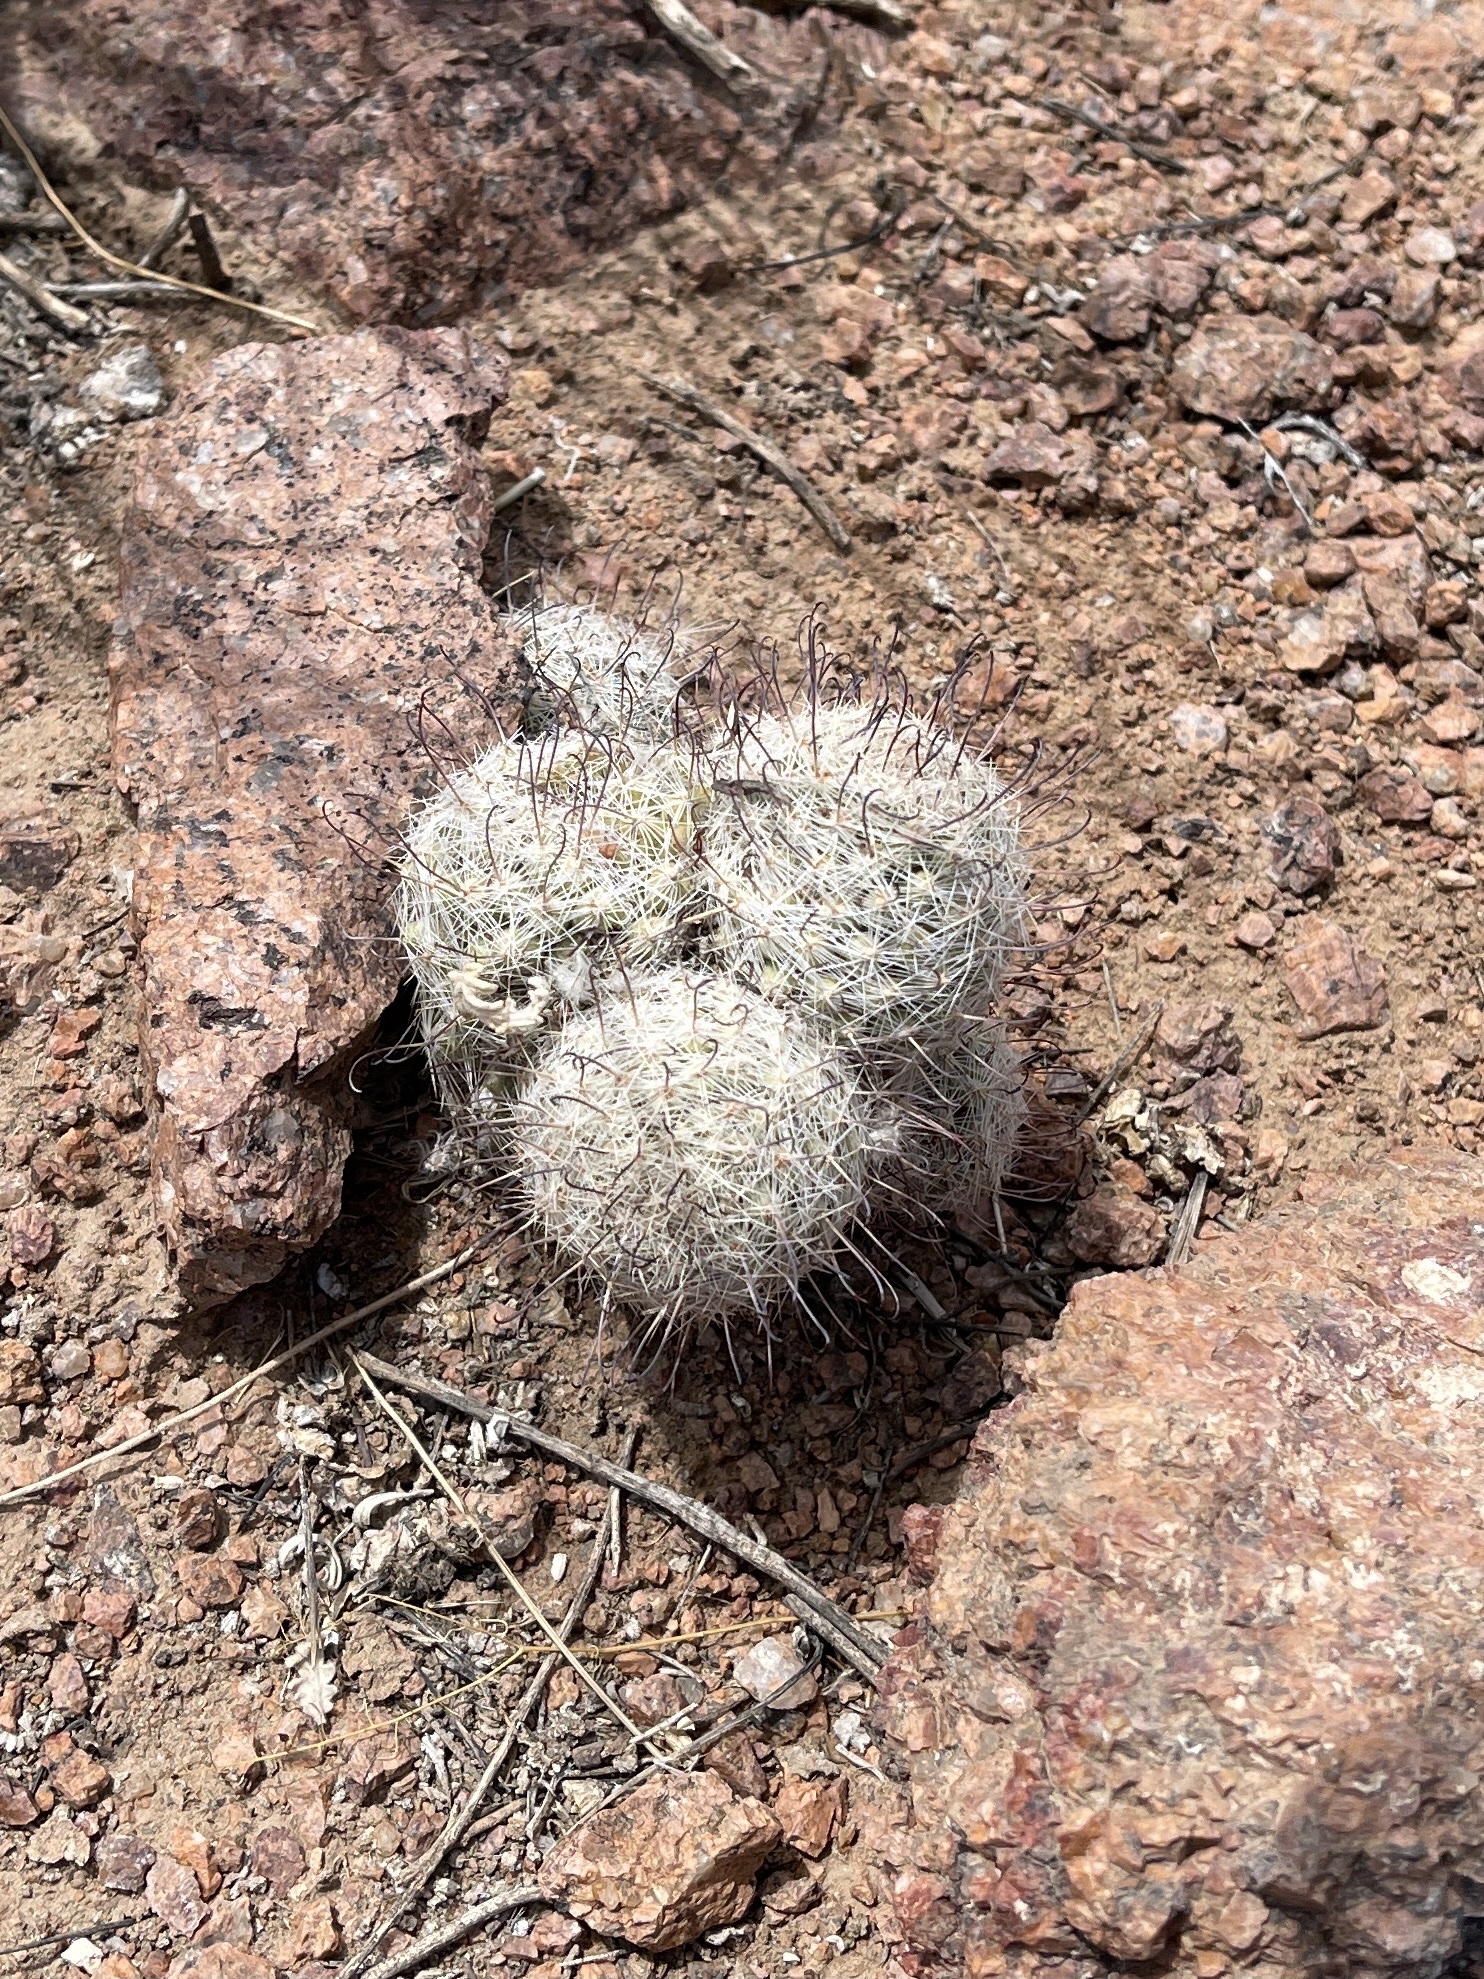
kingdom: Plantae
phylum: Tracheophyta
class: Magnoliopsida
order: Caryophyllales
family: Cactaceae
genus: Cochemiea
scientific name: Cochemiea grahamii
